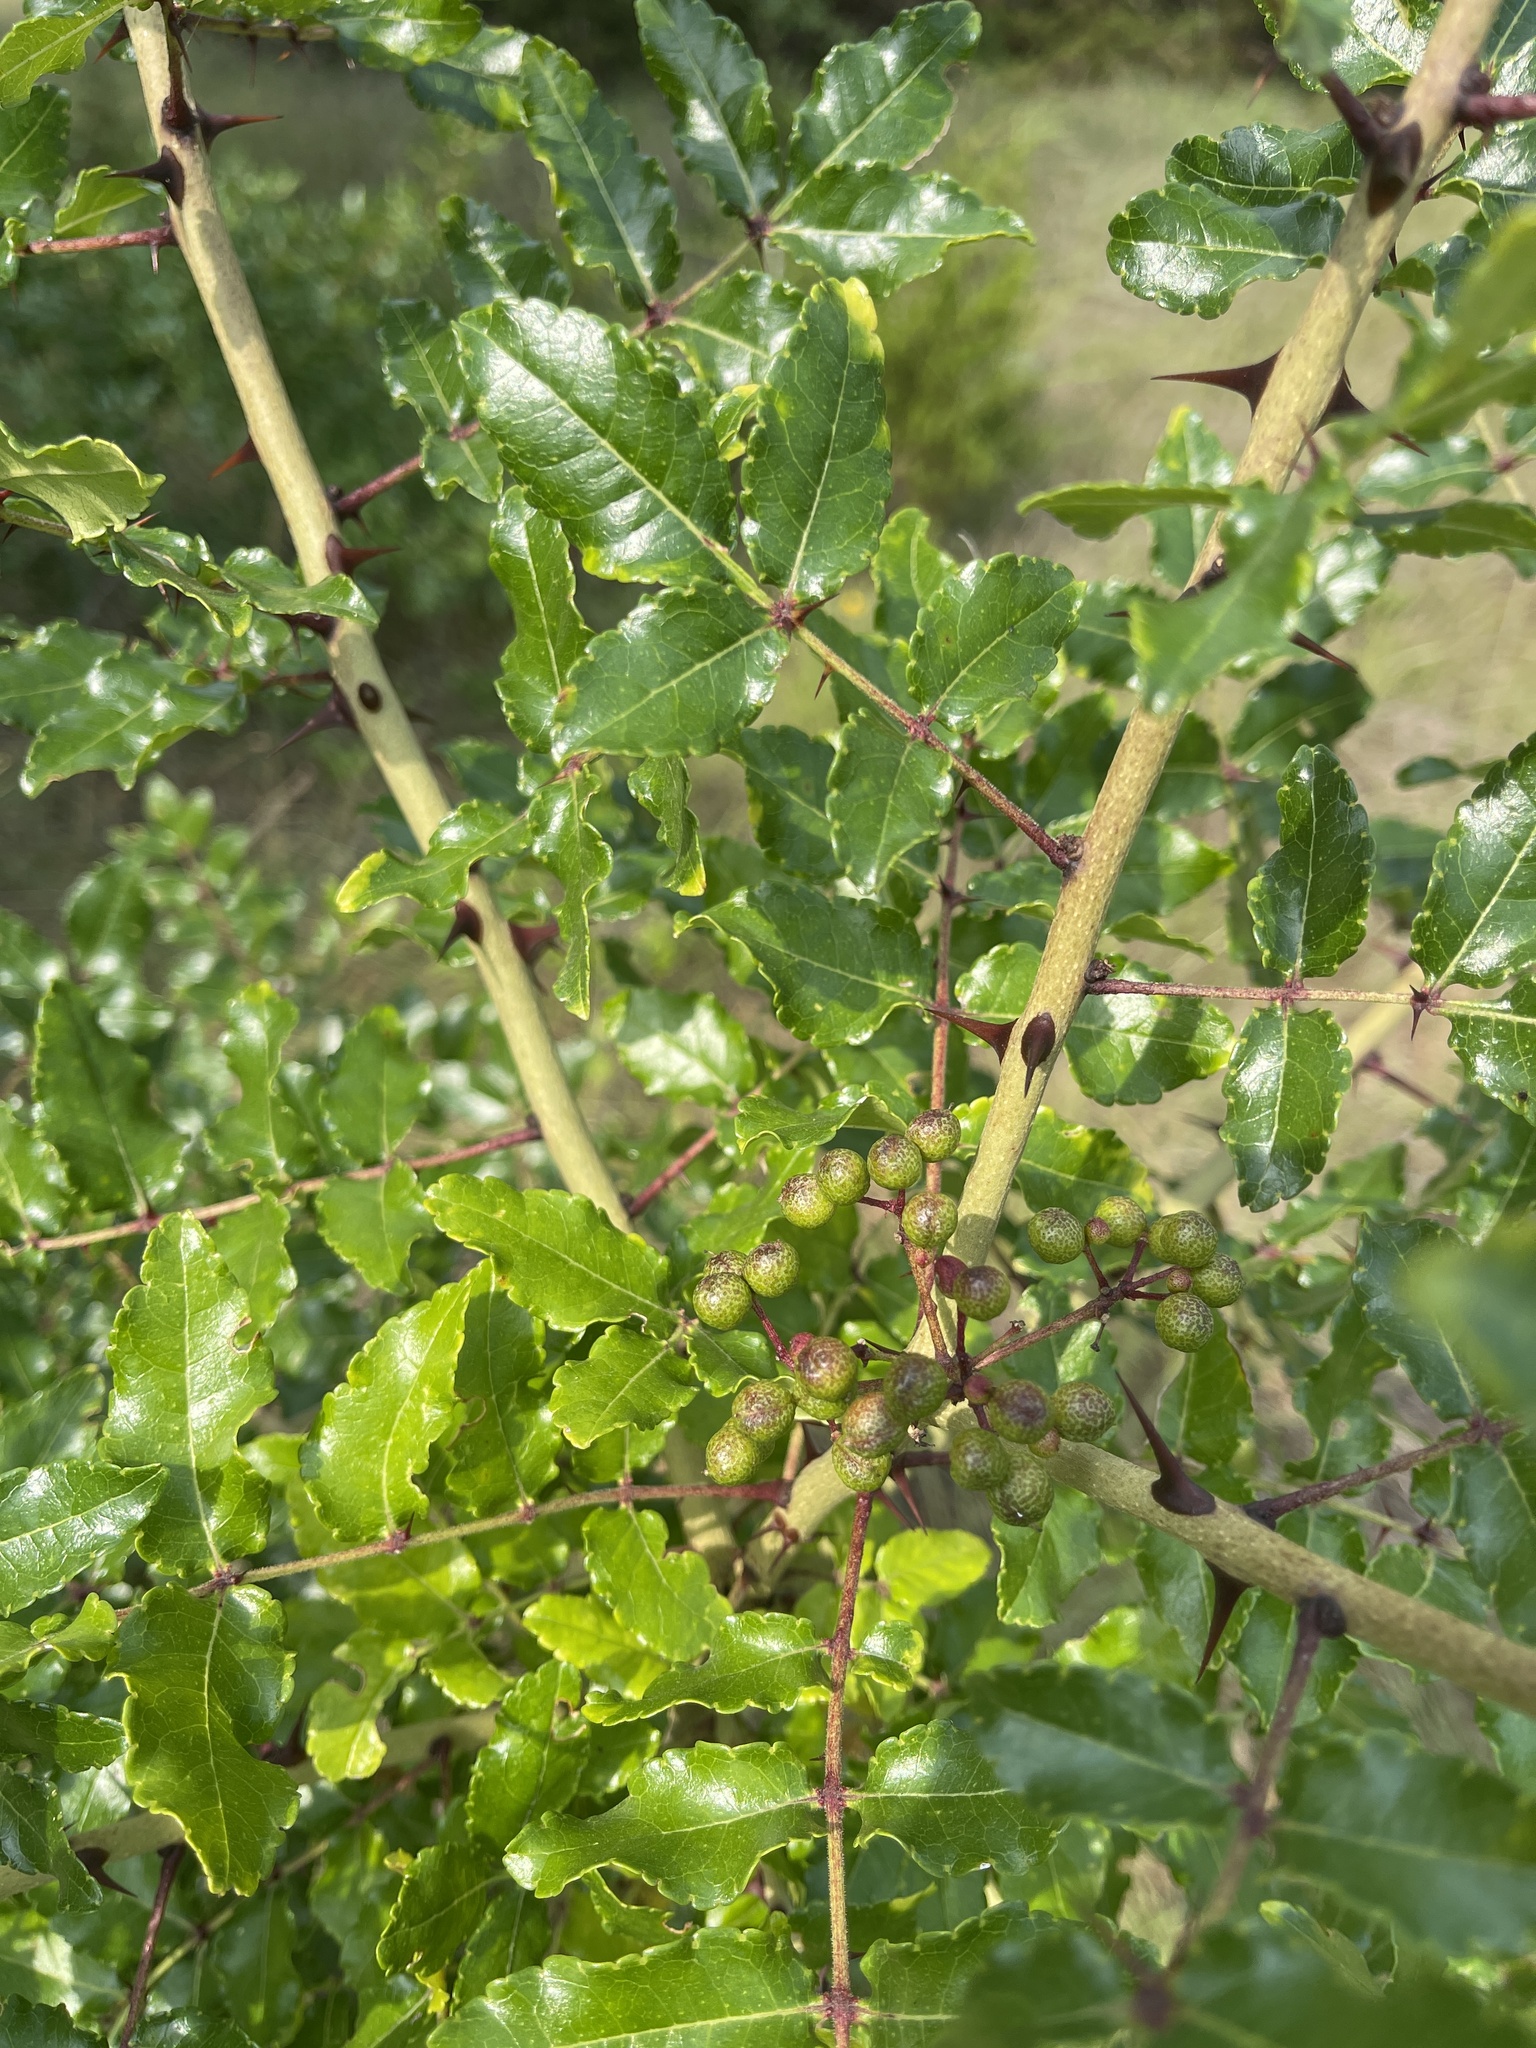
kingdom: Plantae
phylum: Tracheophyta
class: Magnoliopsida
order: Sapindales
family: Rutaceae
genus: Zanthoxylum
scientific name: Zanthoxylum clava-herculis
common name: Hercules'-club
